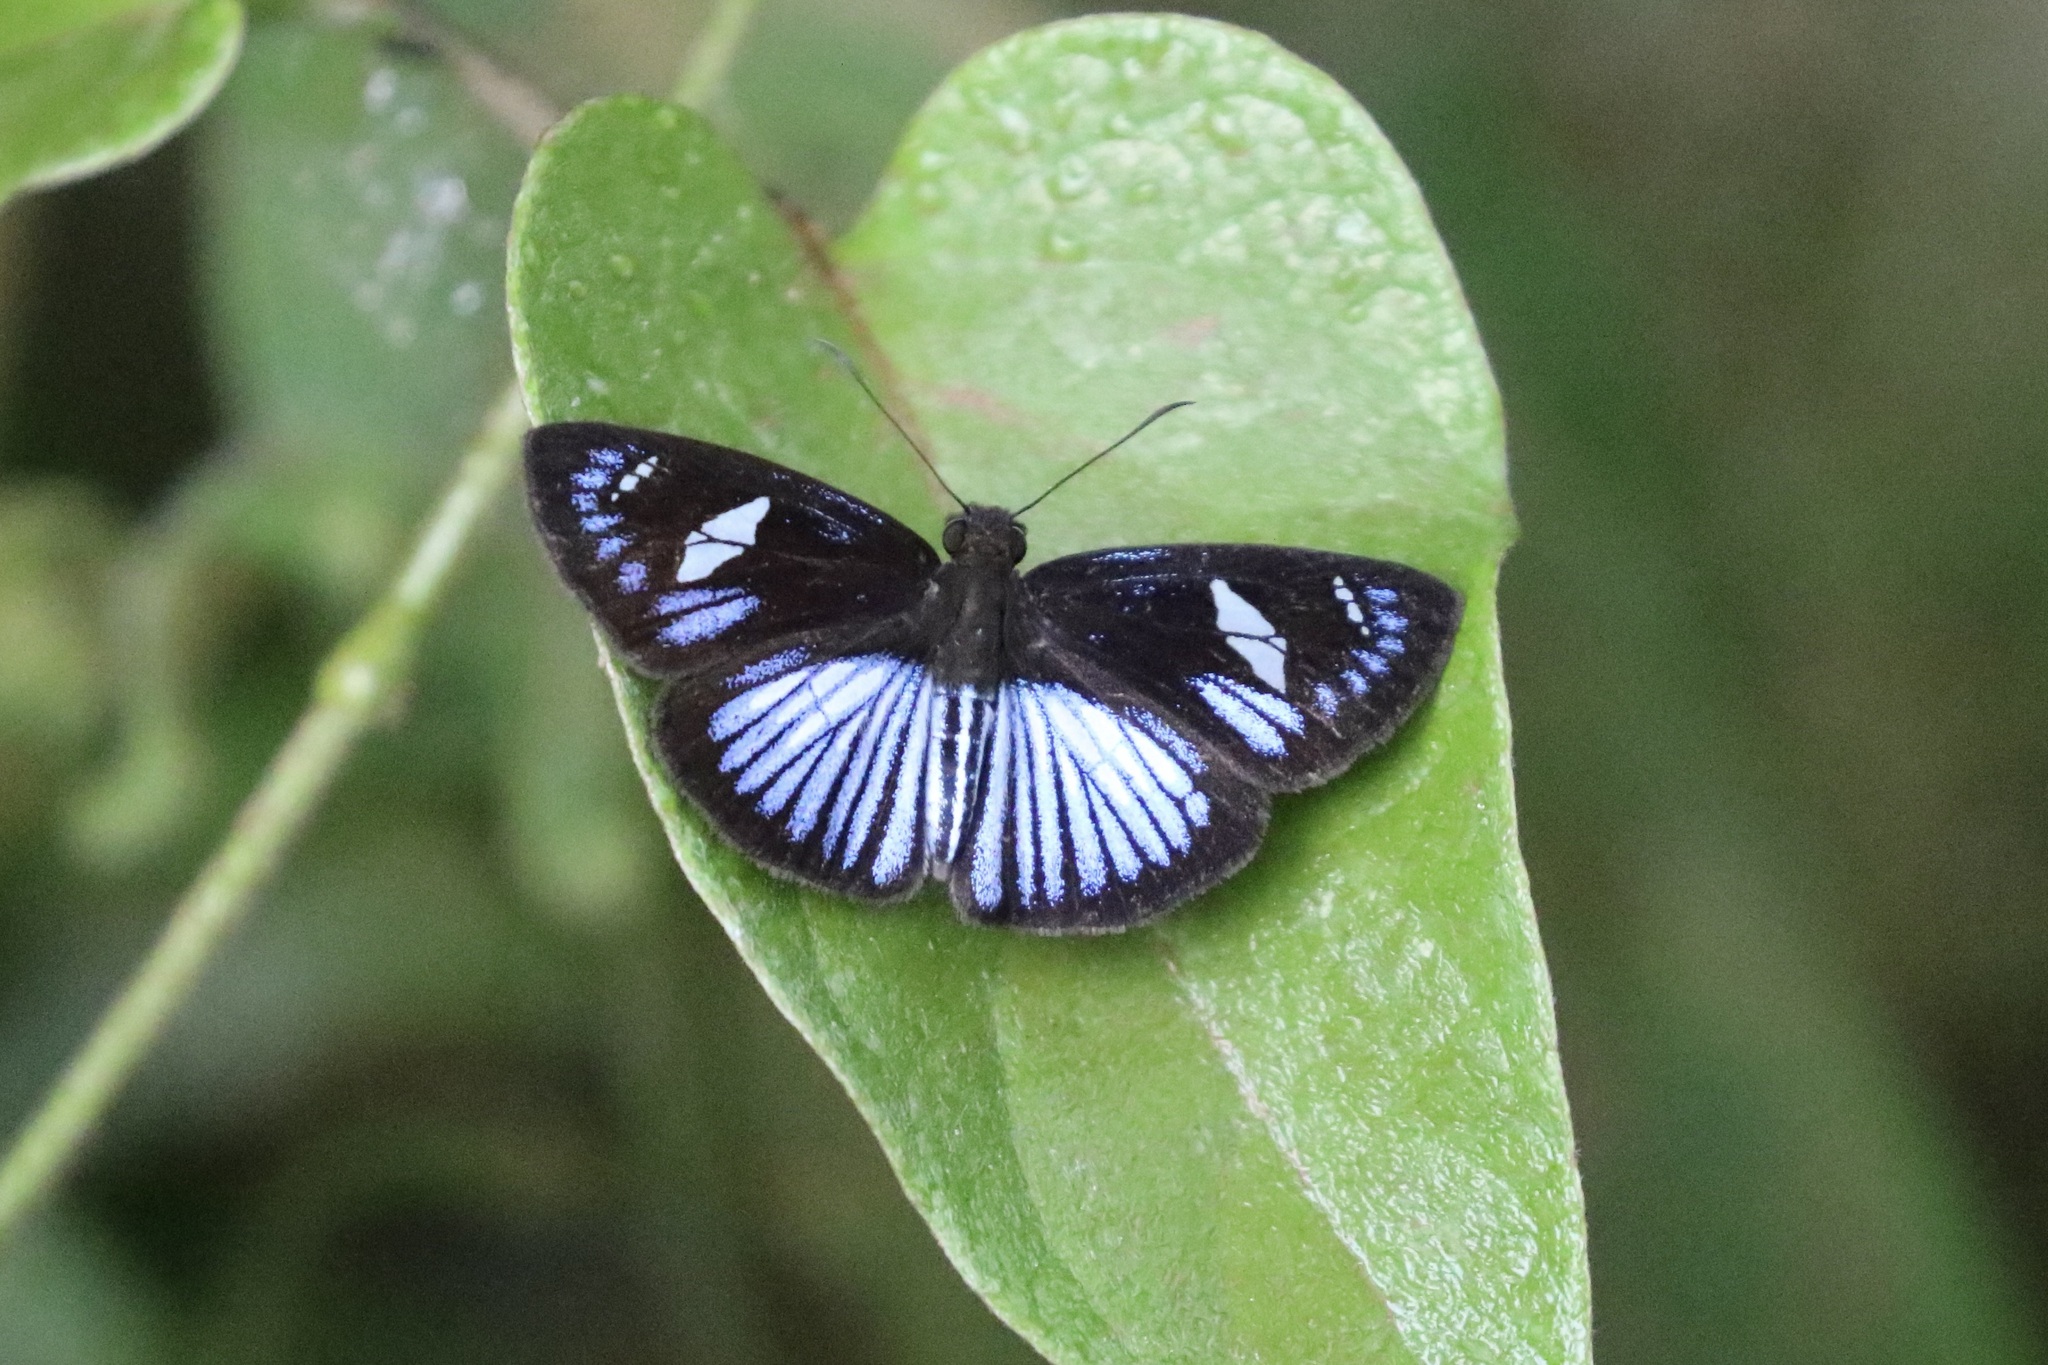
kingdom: Animalia
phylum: Arthropoda
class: Insecta
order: Lepidoptera
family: Hesperiidae
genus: Pythonides
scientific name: Pythonides jovianus
